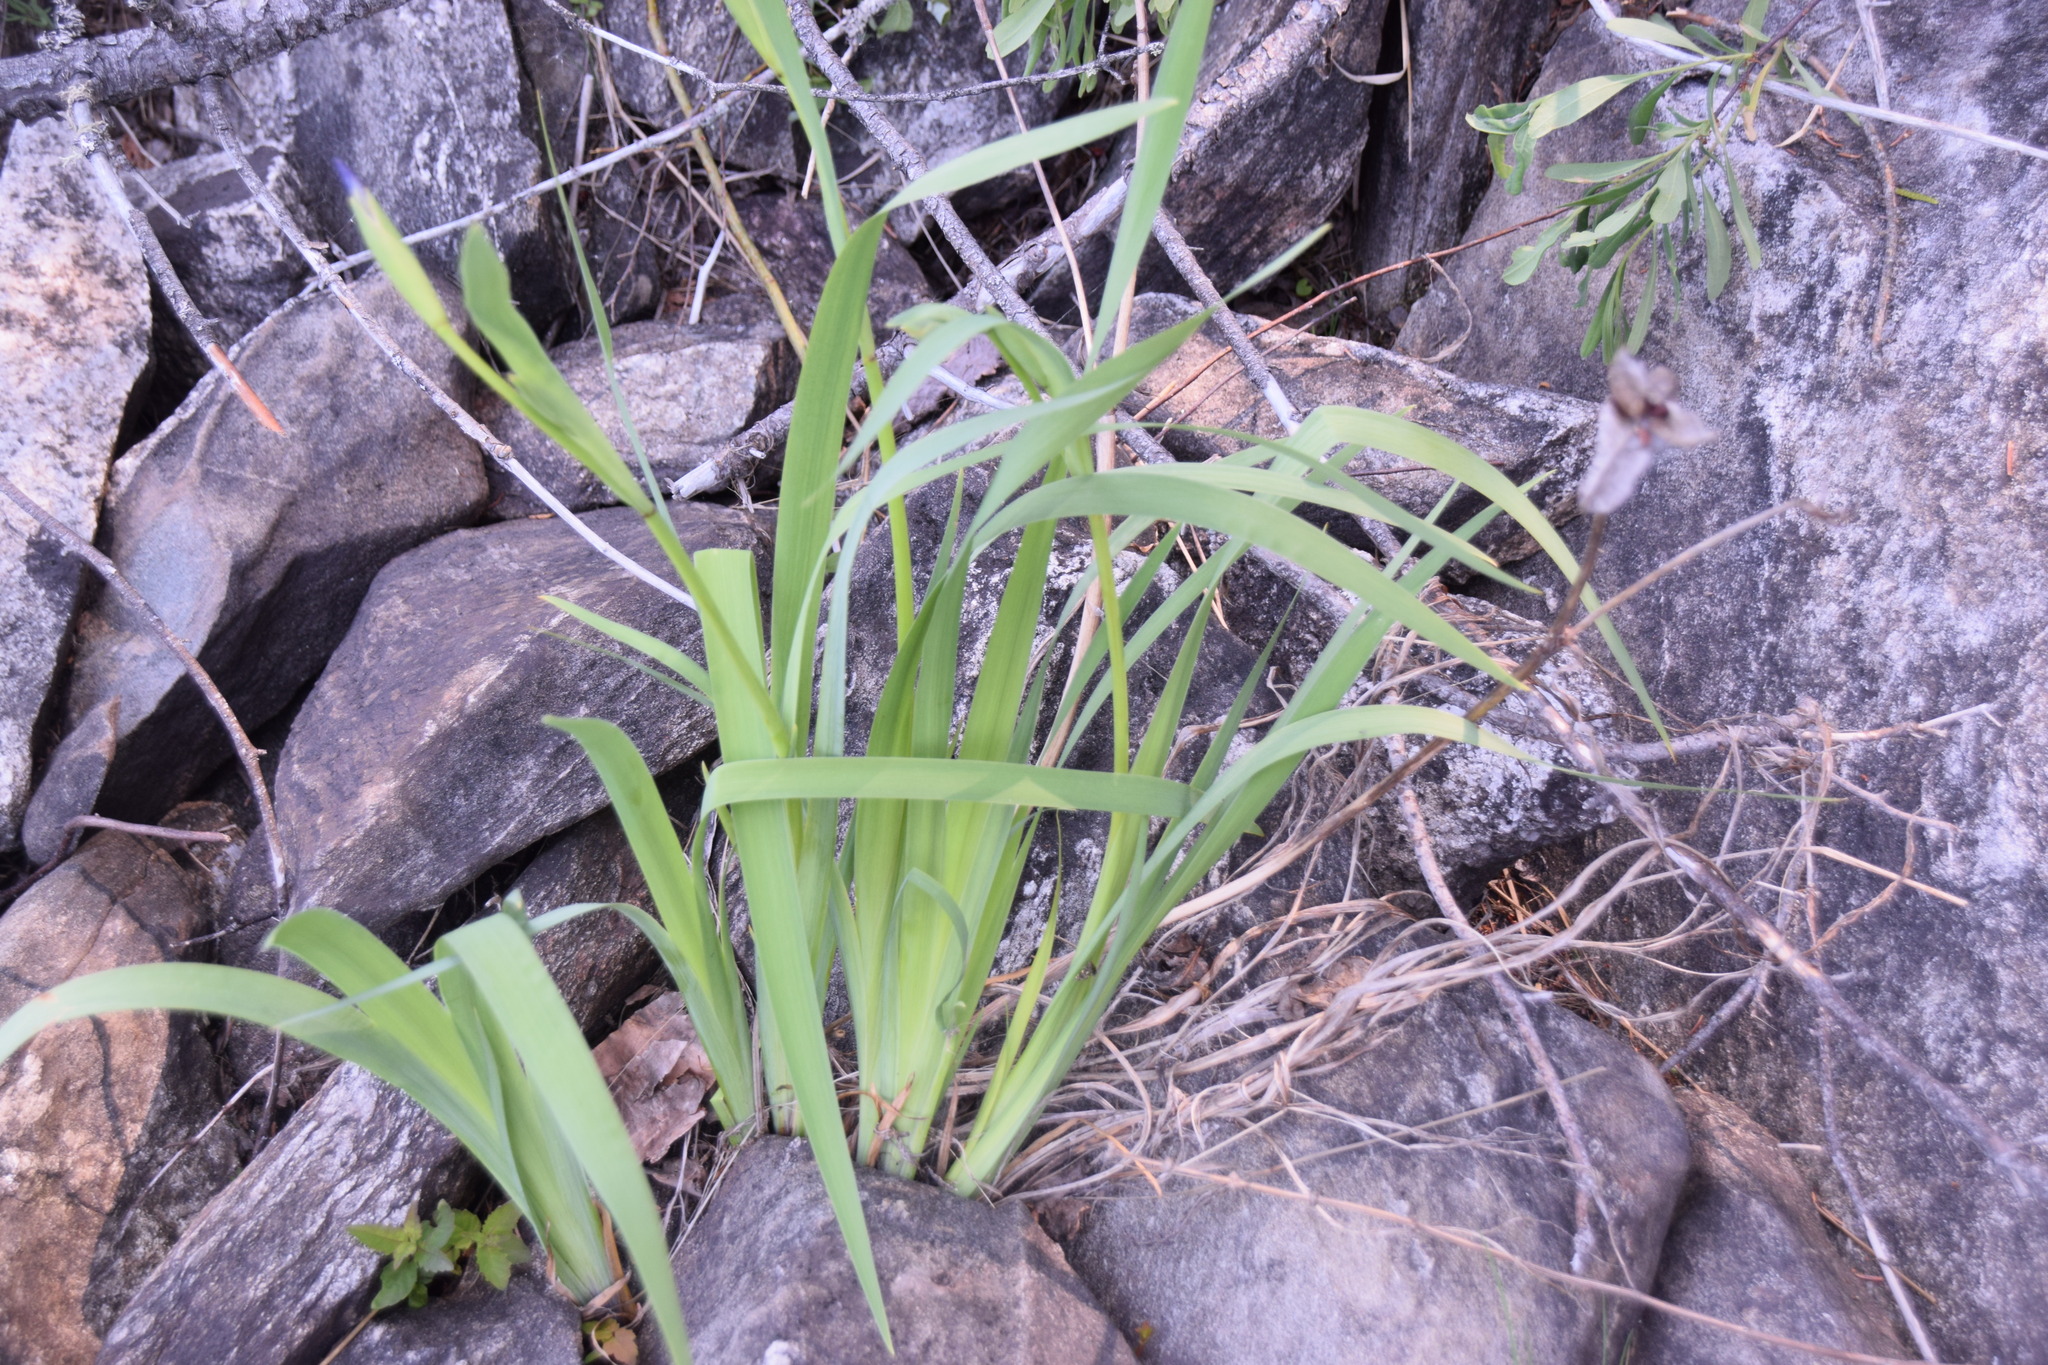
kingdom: Plantae
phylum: Tracheophyta
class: Liliopsida
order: Asparagales
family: Iridaceae
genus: Iris
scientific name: Iris versicolor
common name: Purple iris
